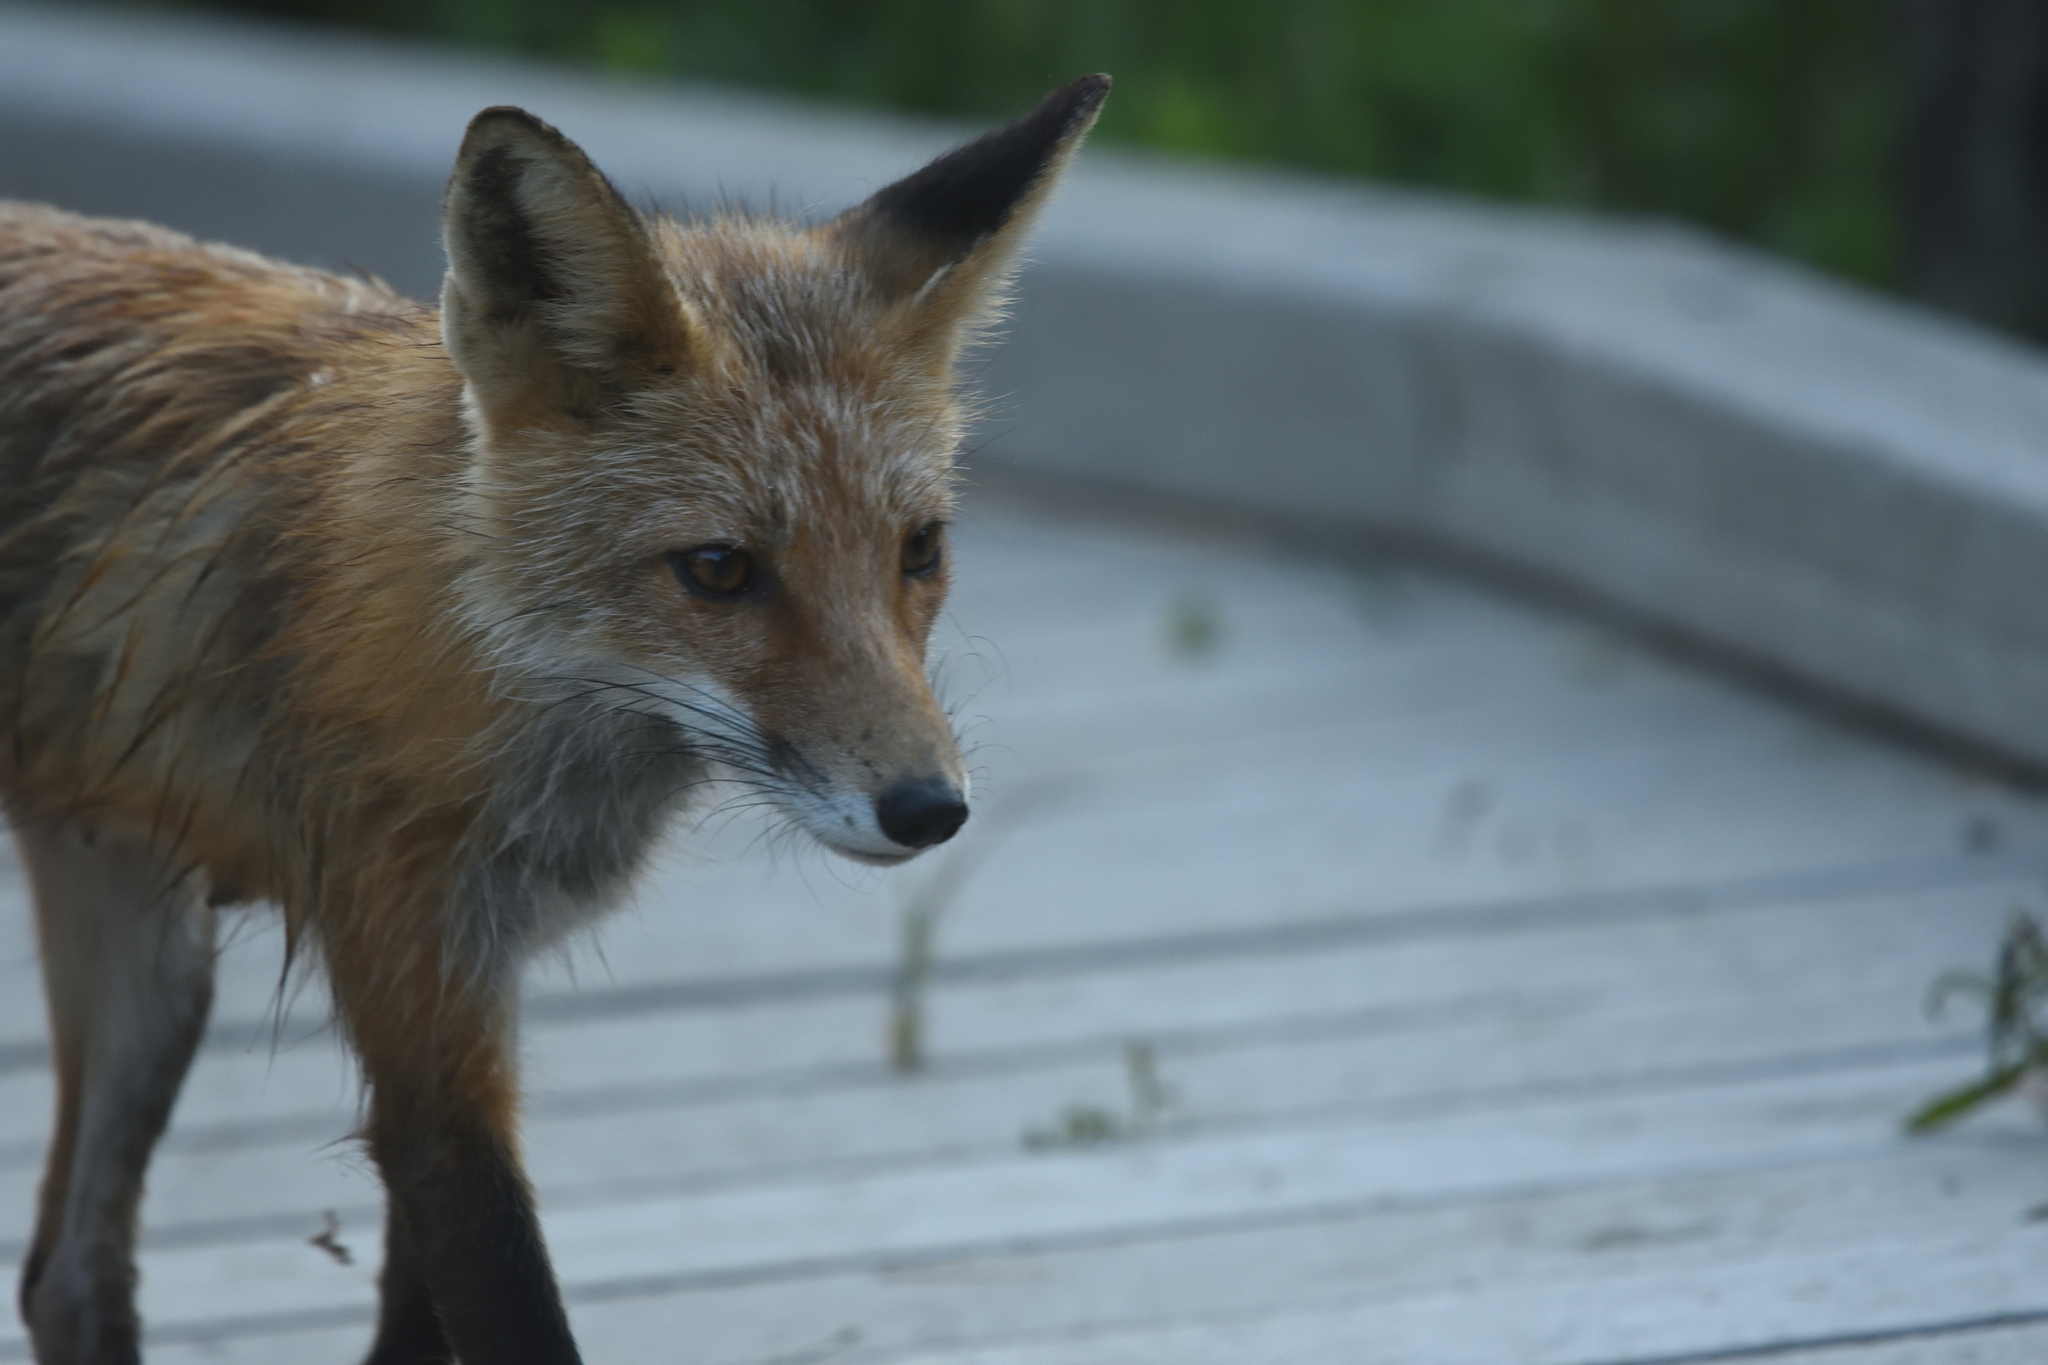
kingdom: Animalia
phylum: Chordata
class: Mammalia
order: Carnivora
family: Canidae
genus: Vulpes
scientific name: Vulpes vulpes
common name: Red fox
